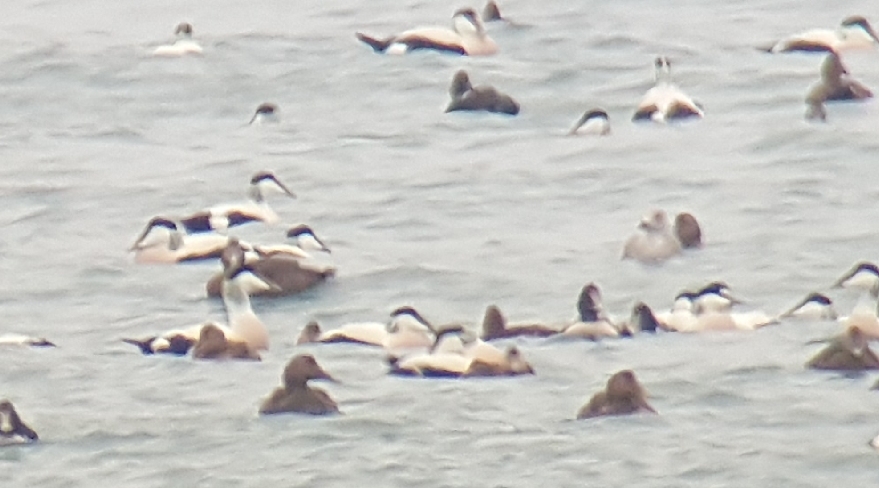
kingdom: Animalia
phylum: Chordata
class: Aves
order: Anseriformes
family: Anatidae
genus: Somateria
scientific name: Somateria mollissima
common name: Common eider
